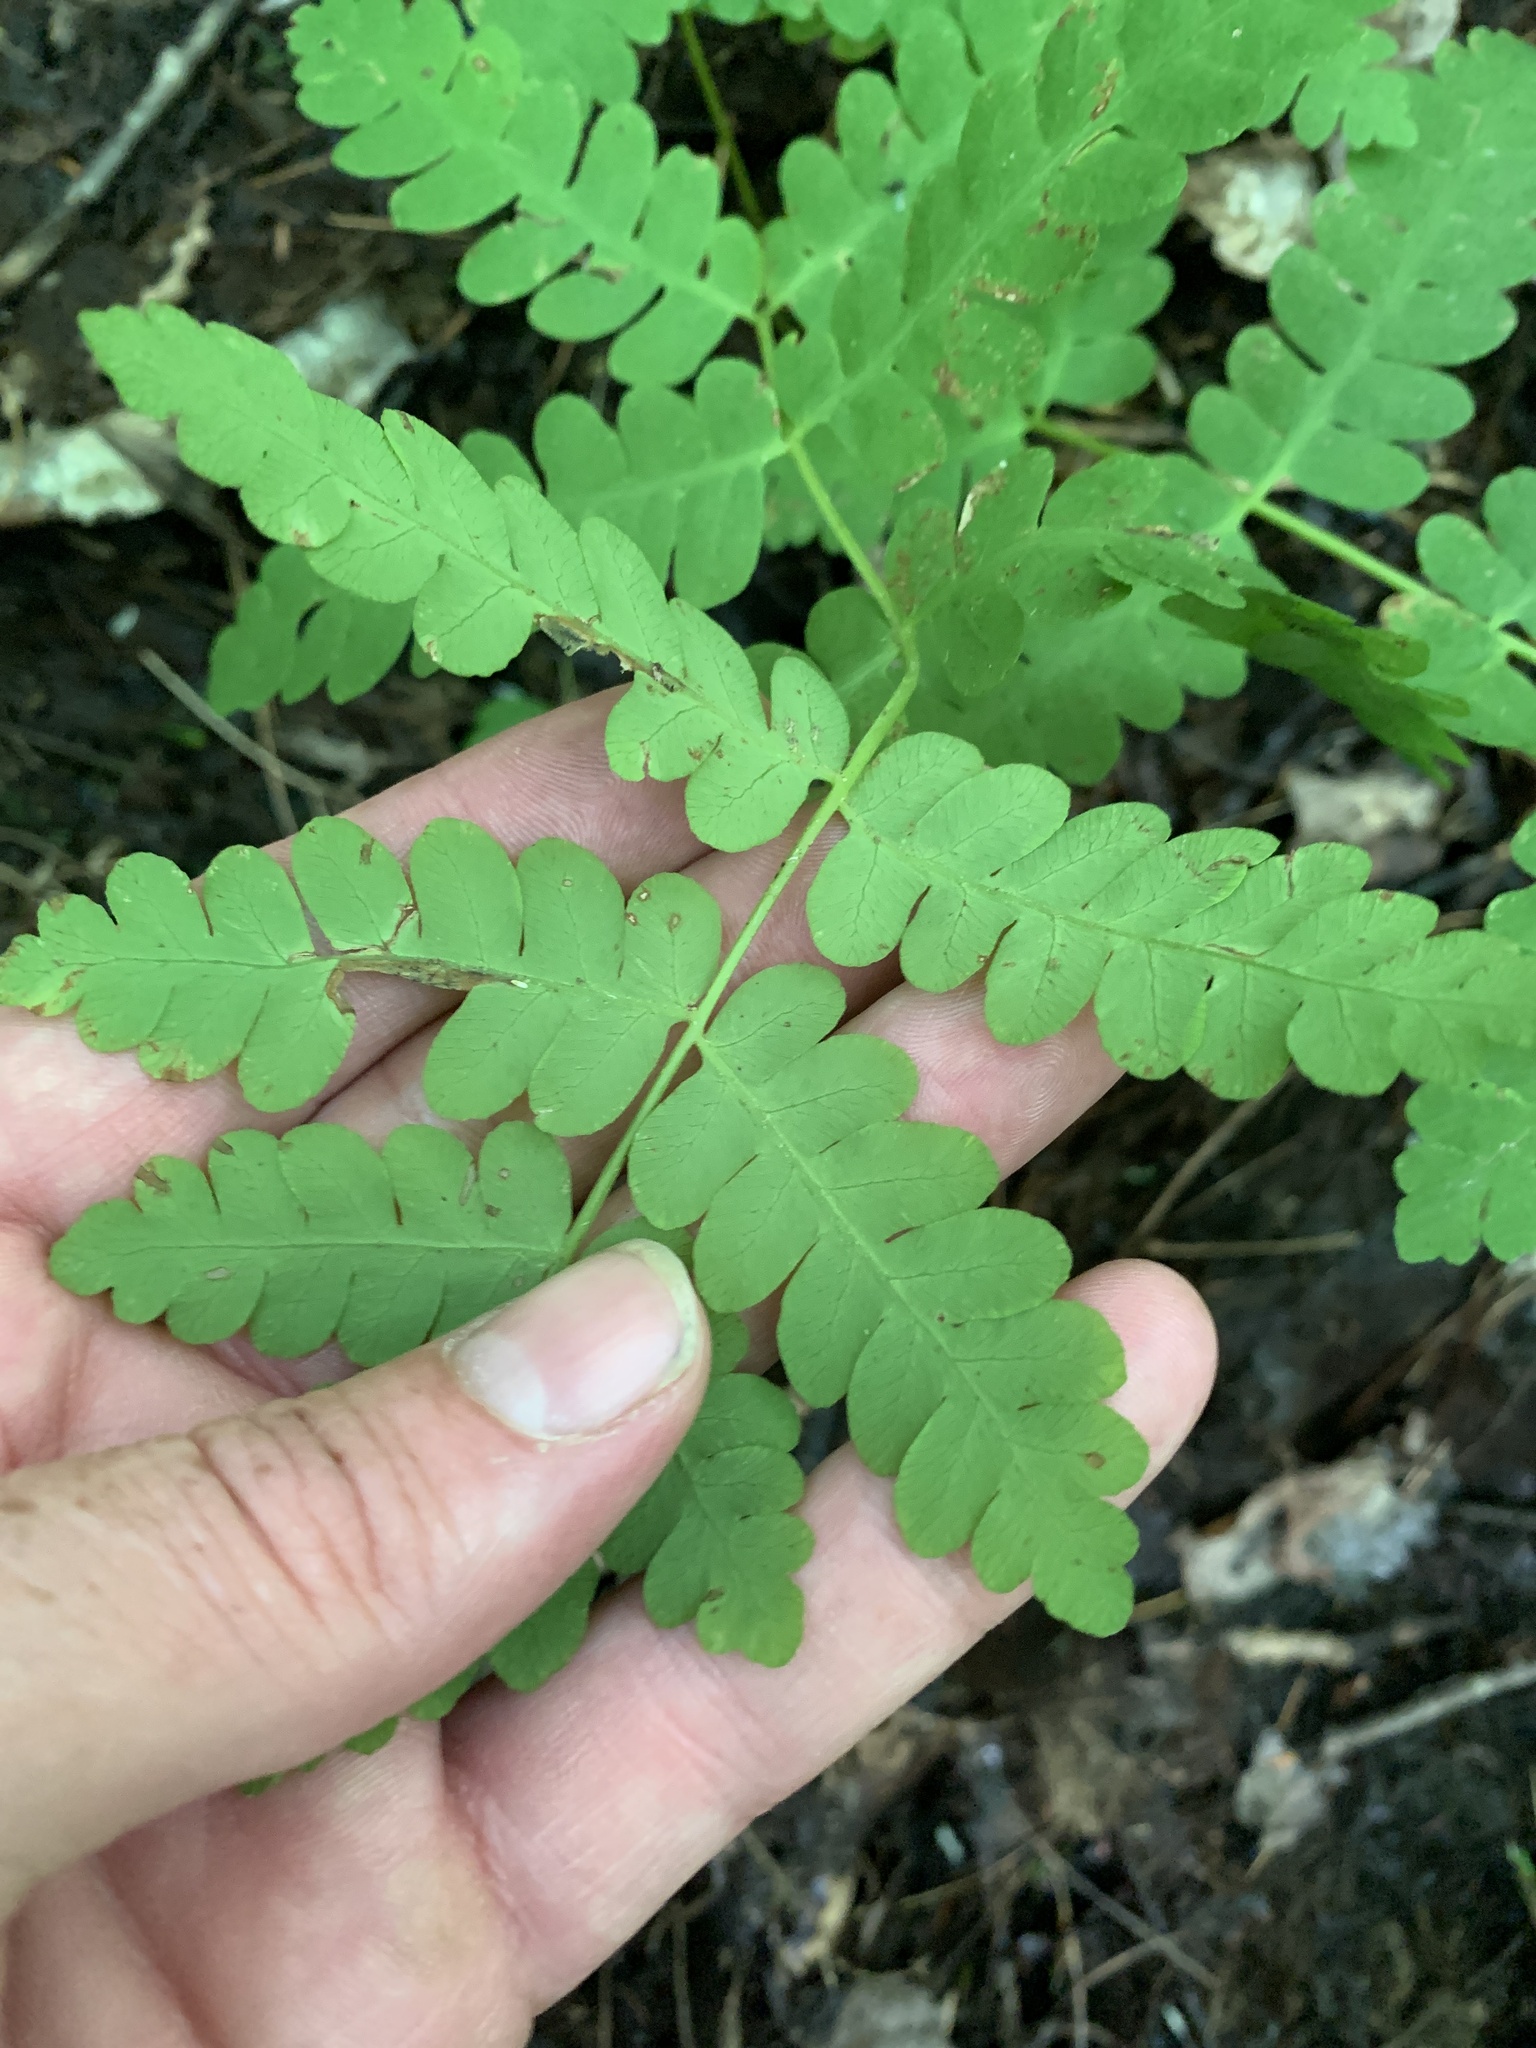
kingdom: Plantae
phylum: Tracheophyta
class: Polypodiopsida
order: Osmundales
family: Osmundaceae
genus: Claytosmunda
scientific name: Claytosmunda claytoniana
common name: Clayton's fern
